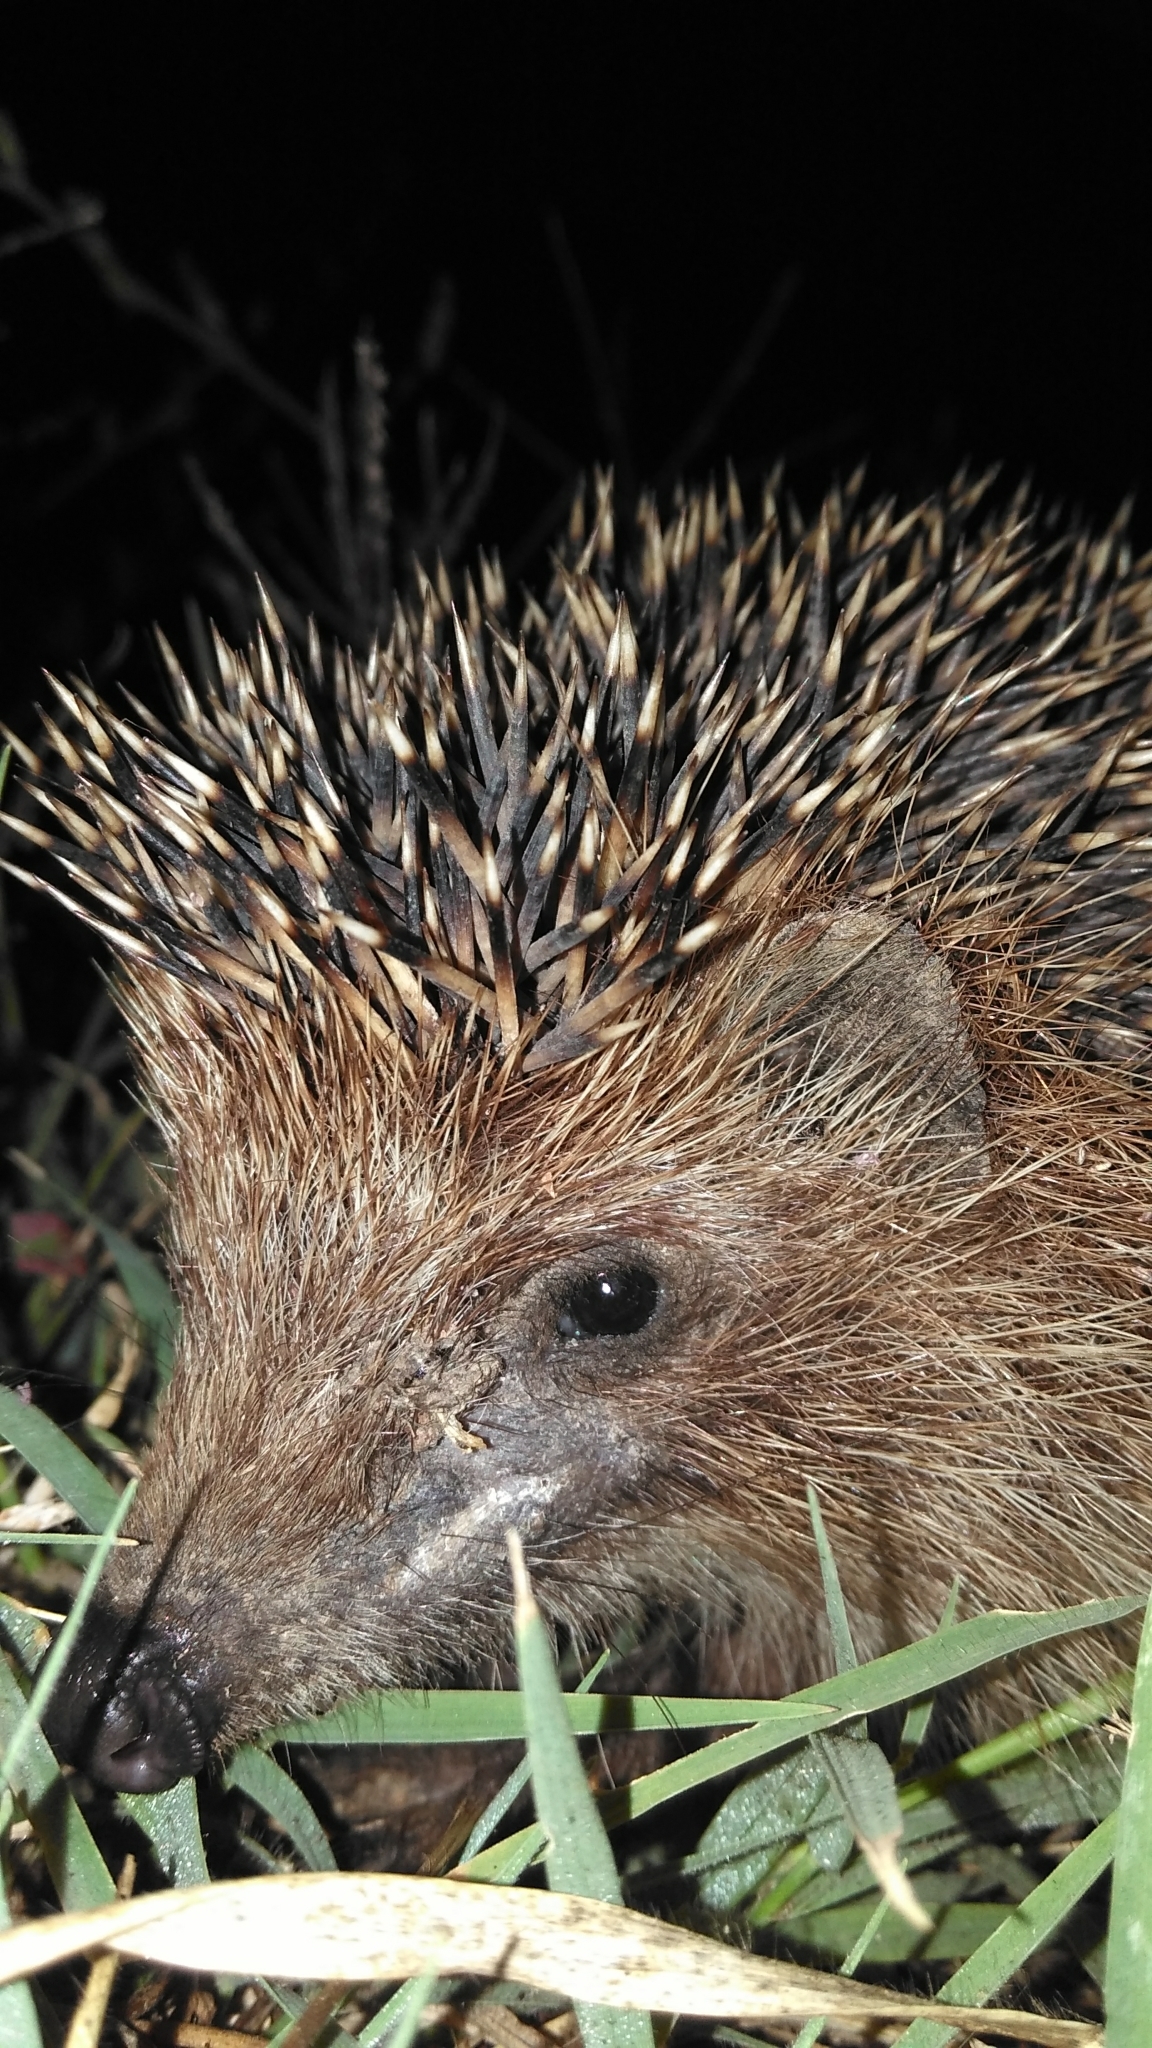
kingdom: Animalia
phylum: Chordata
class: Mammalia
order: Erinaceomorpha
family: Erinaceidae
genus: Erinaceus
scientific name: Erinaceus roumanicus
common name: Northern white-breasted hedgehog
